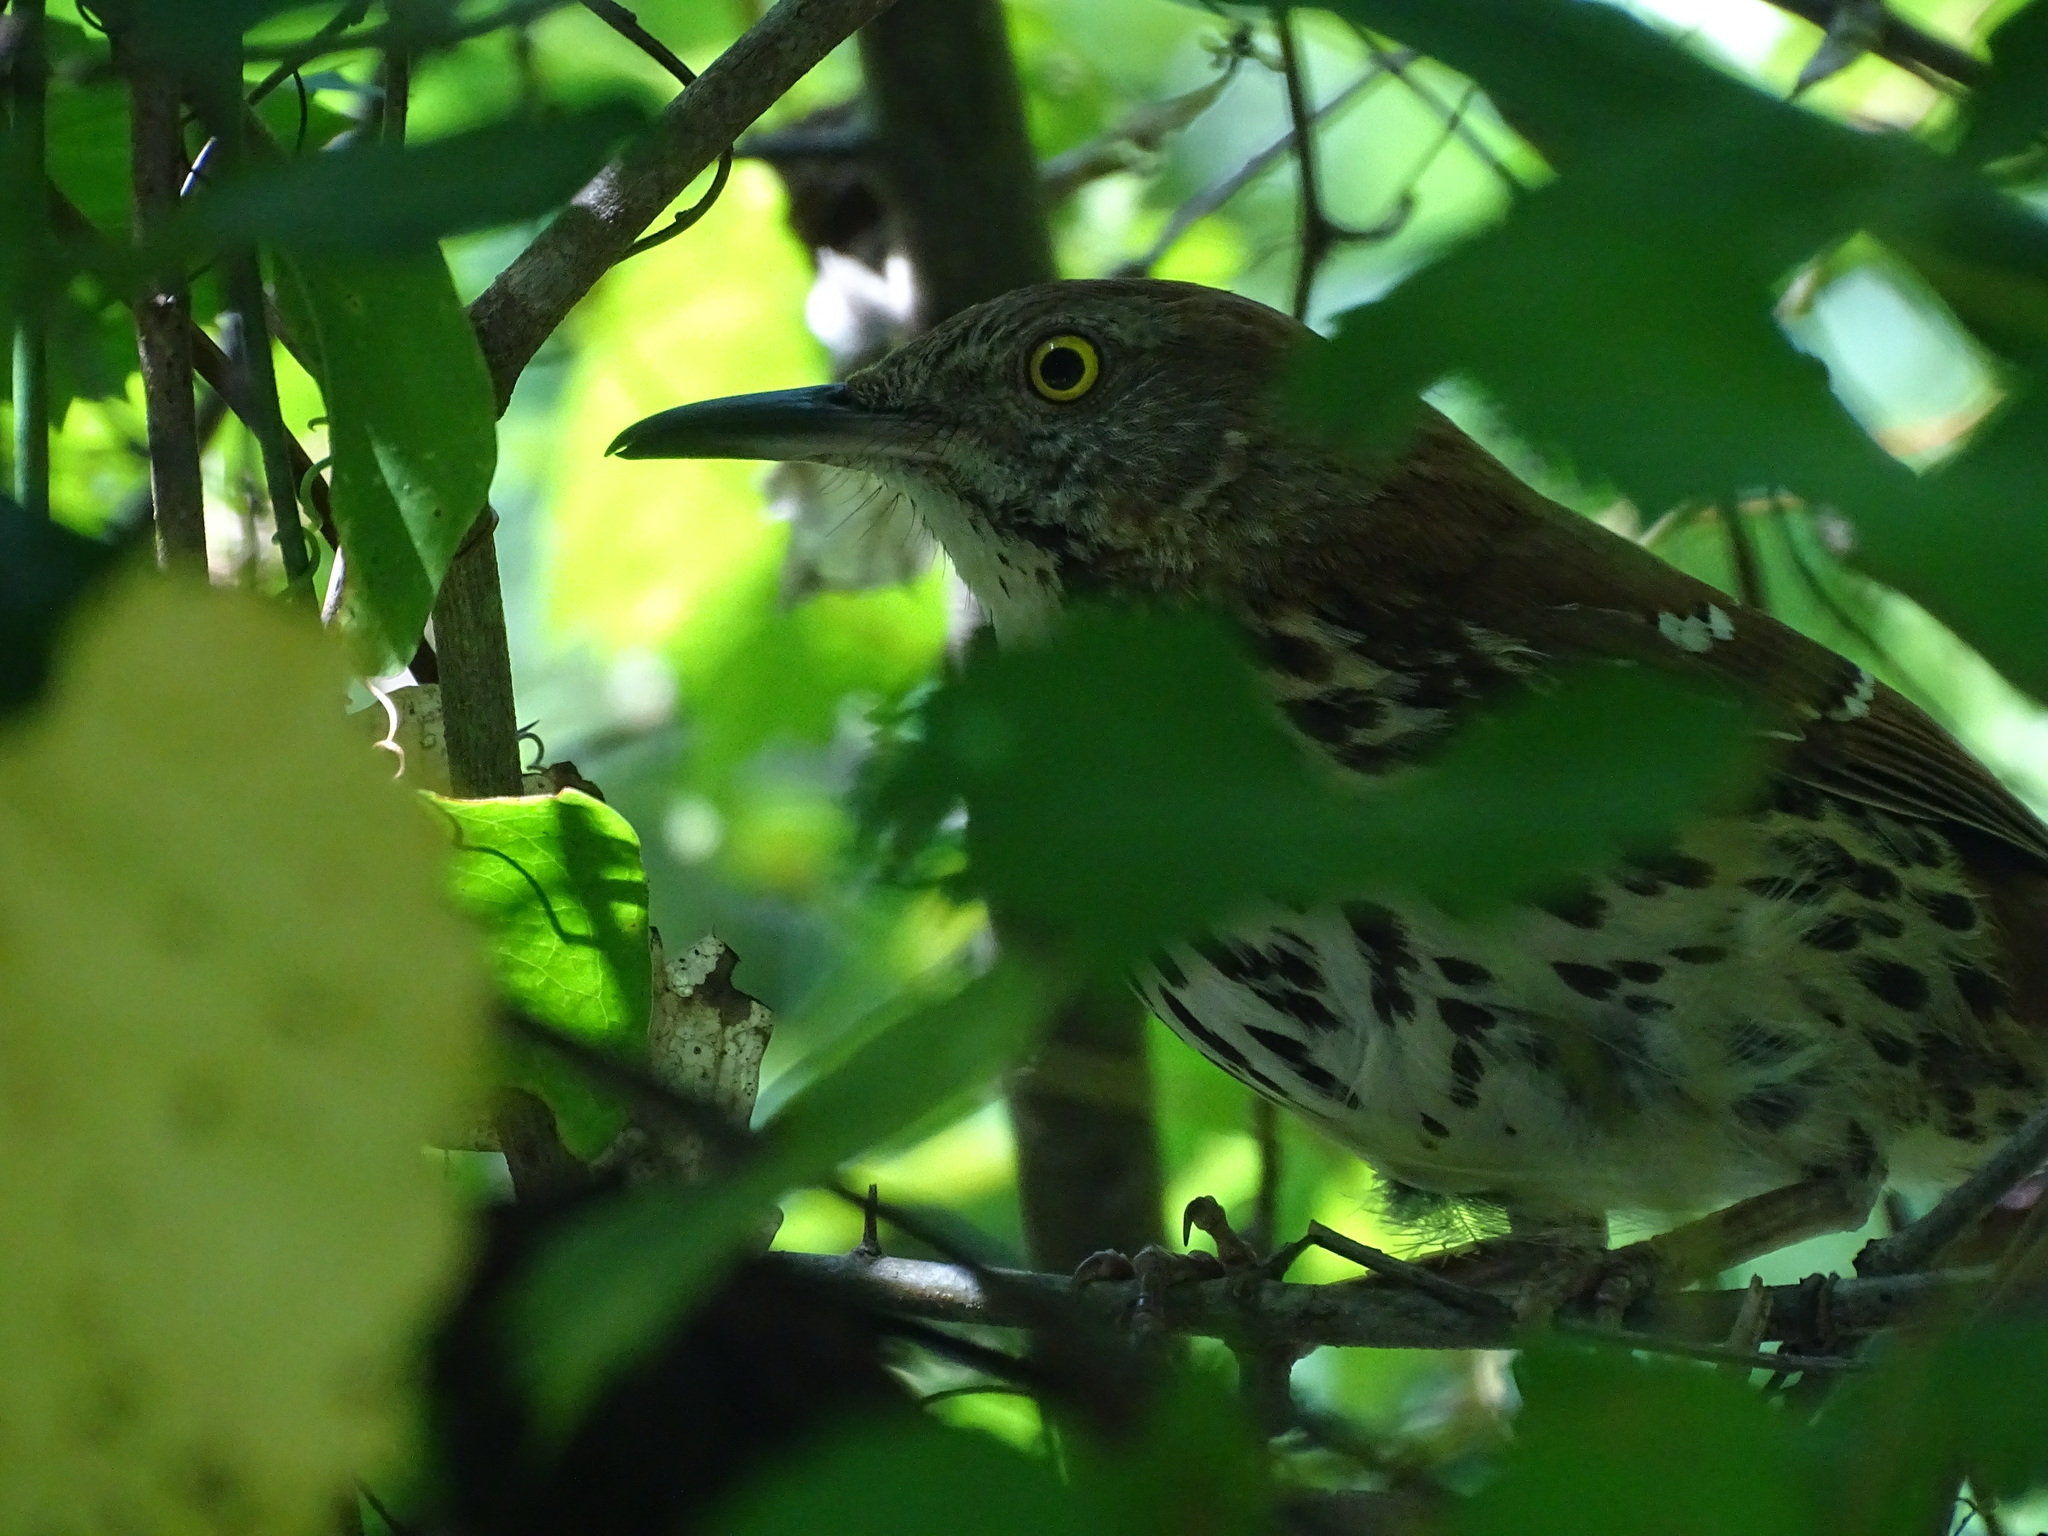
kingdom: Animalia
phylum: Chordata
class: Aves
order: Passeriformes
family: Mimidae
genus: Toxostoma
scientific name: Toxostoma rufum
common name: Brown thrasher
